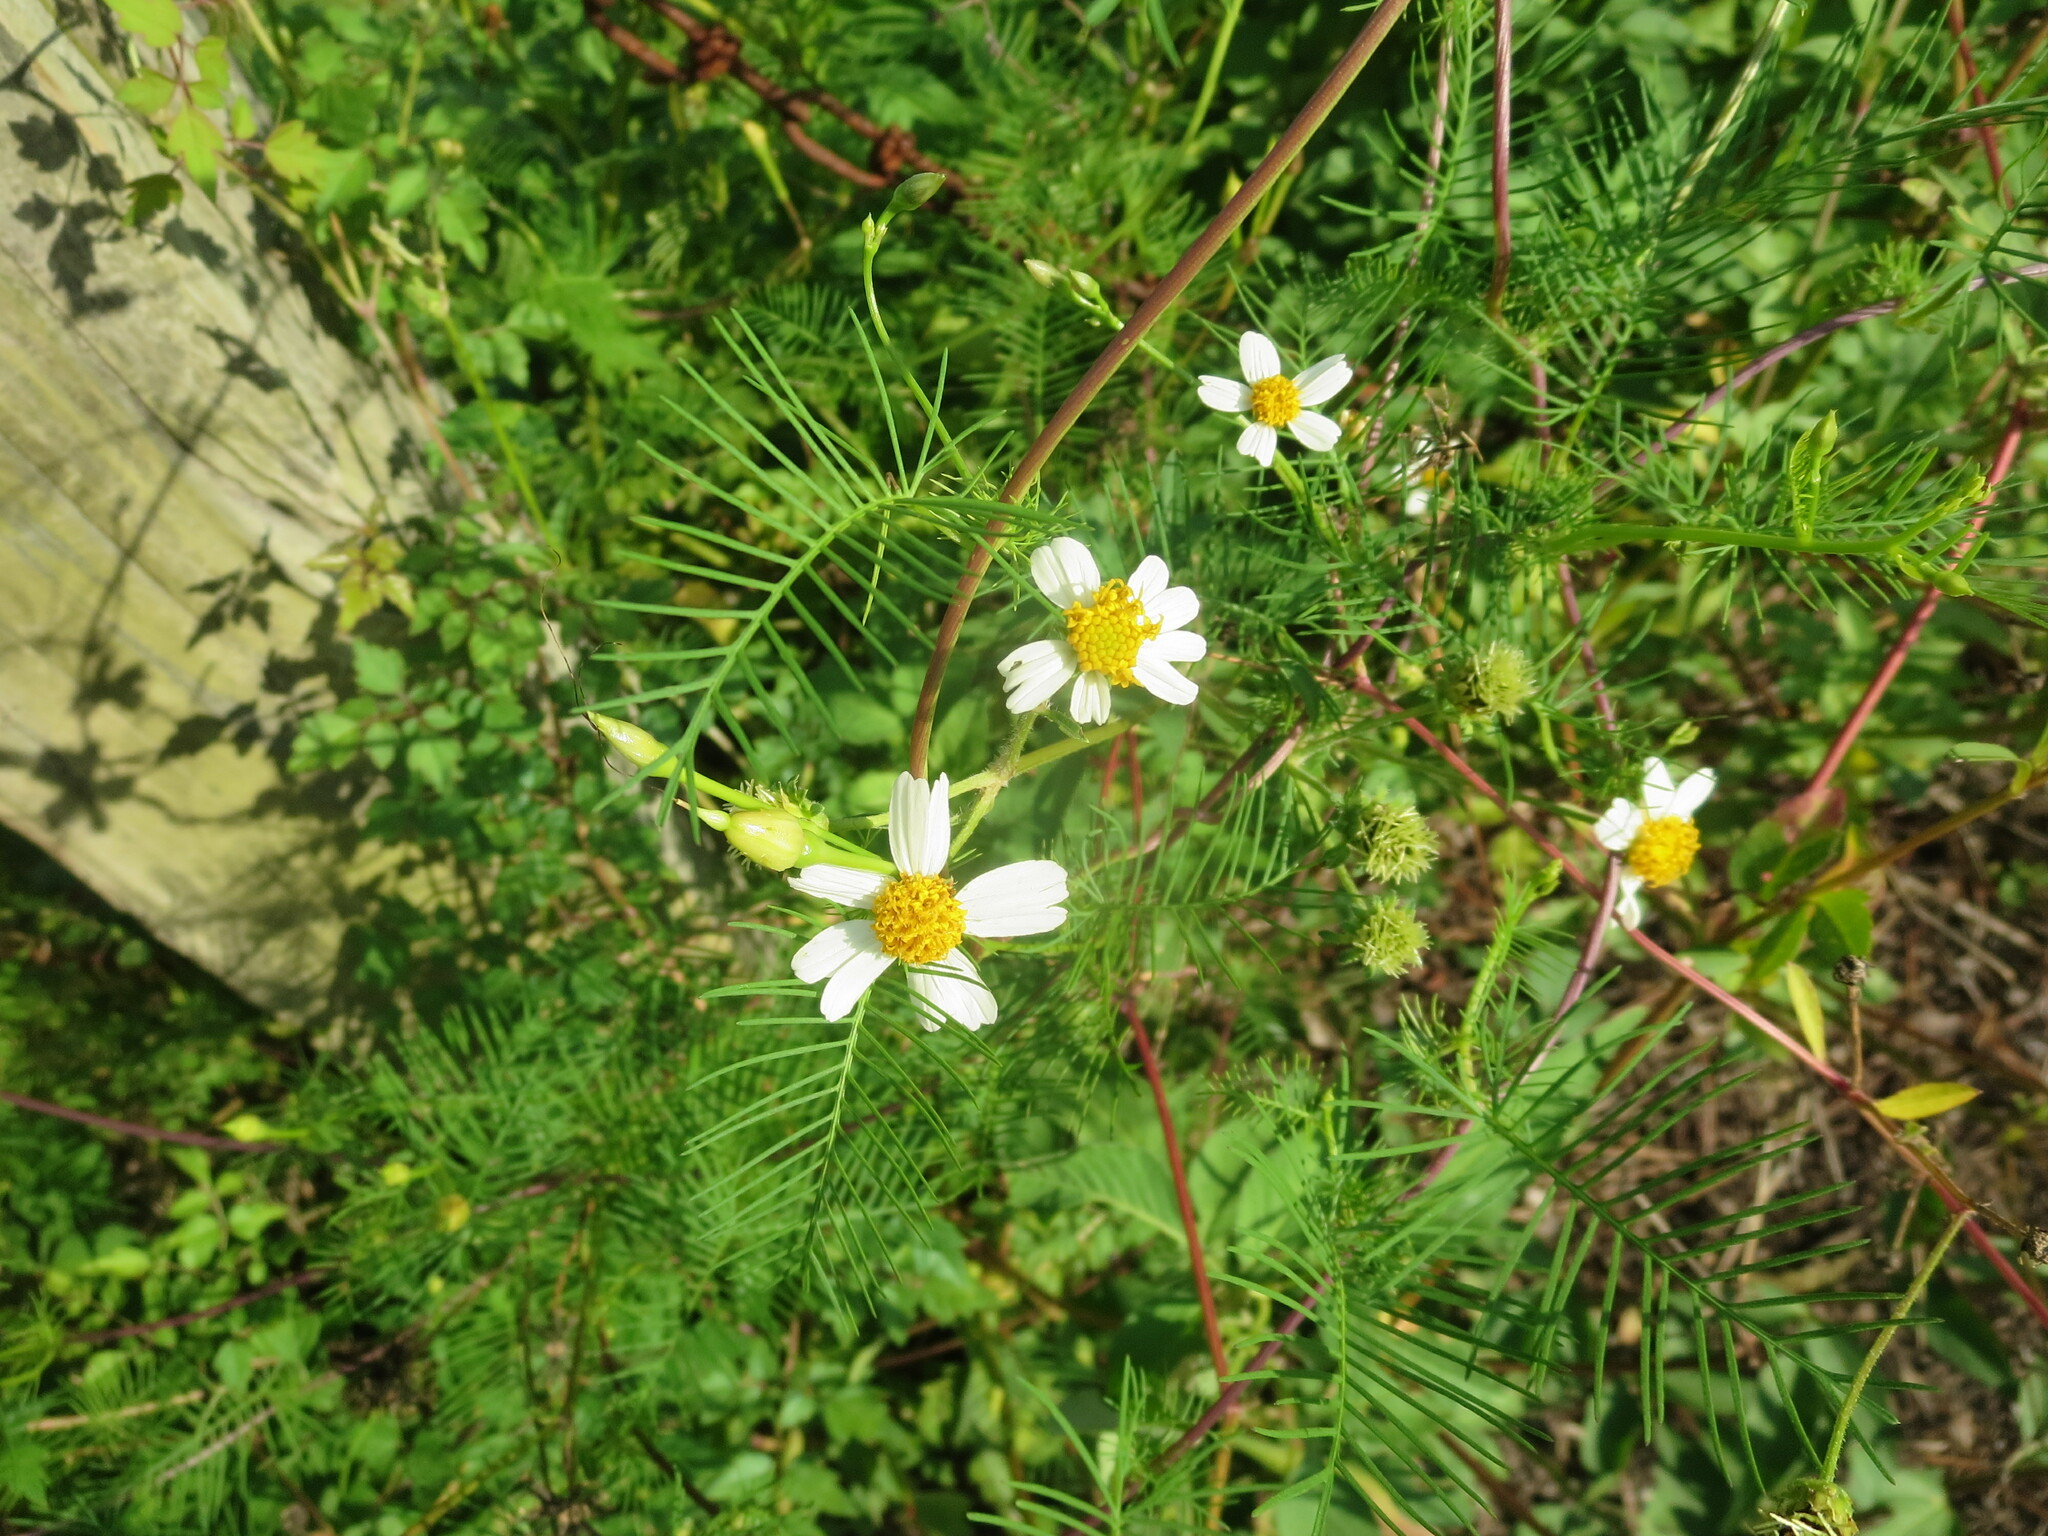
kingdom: Plantae
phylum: Tracheophyta
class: Magnoliopsida
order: Asterales
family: Asteraceae
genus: Bidens
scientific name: Bidens alba
